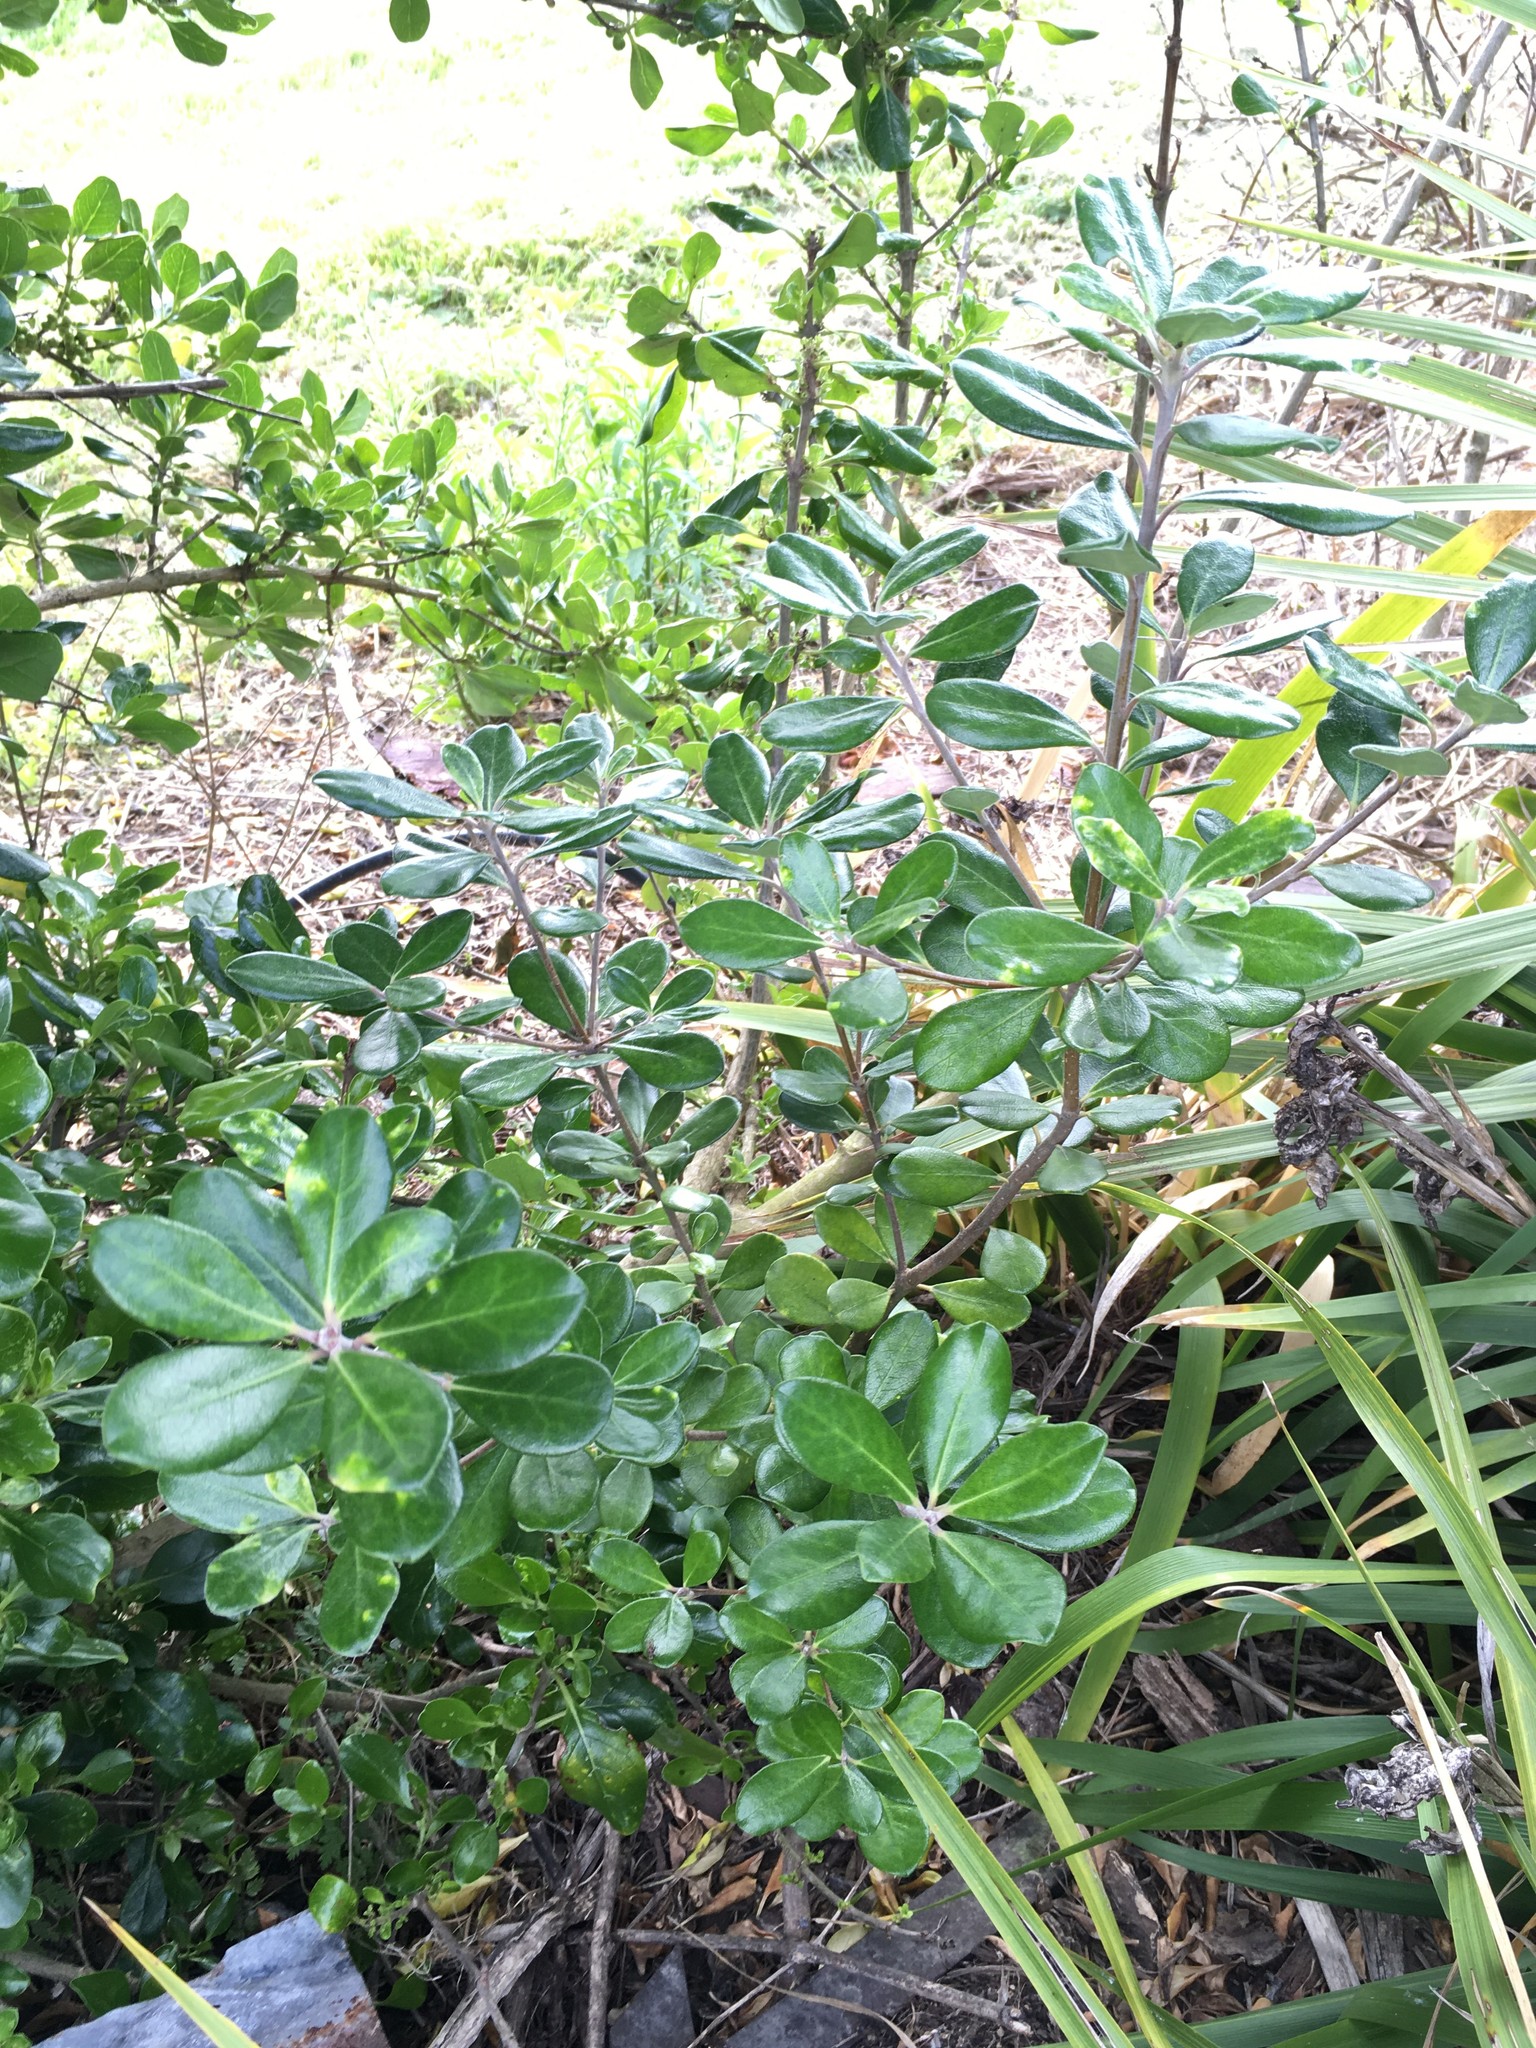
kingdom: Plantae
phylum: Tracheophyta
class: Magnoliopsida
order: Apiales
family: Pittosporaceae
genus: Pittosporum
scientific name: Pittosporum crassifolium
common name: Karo
